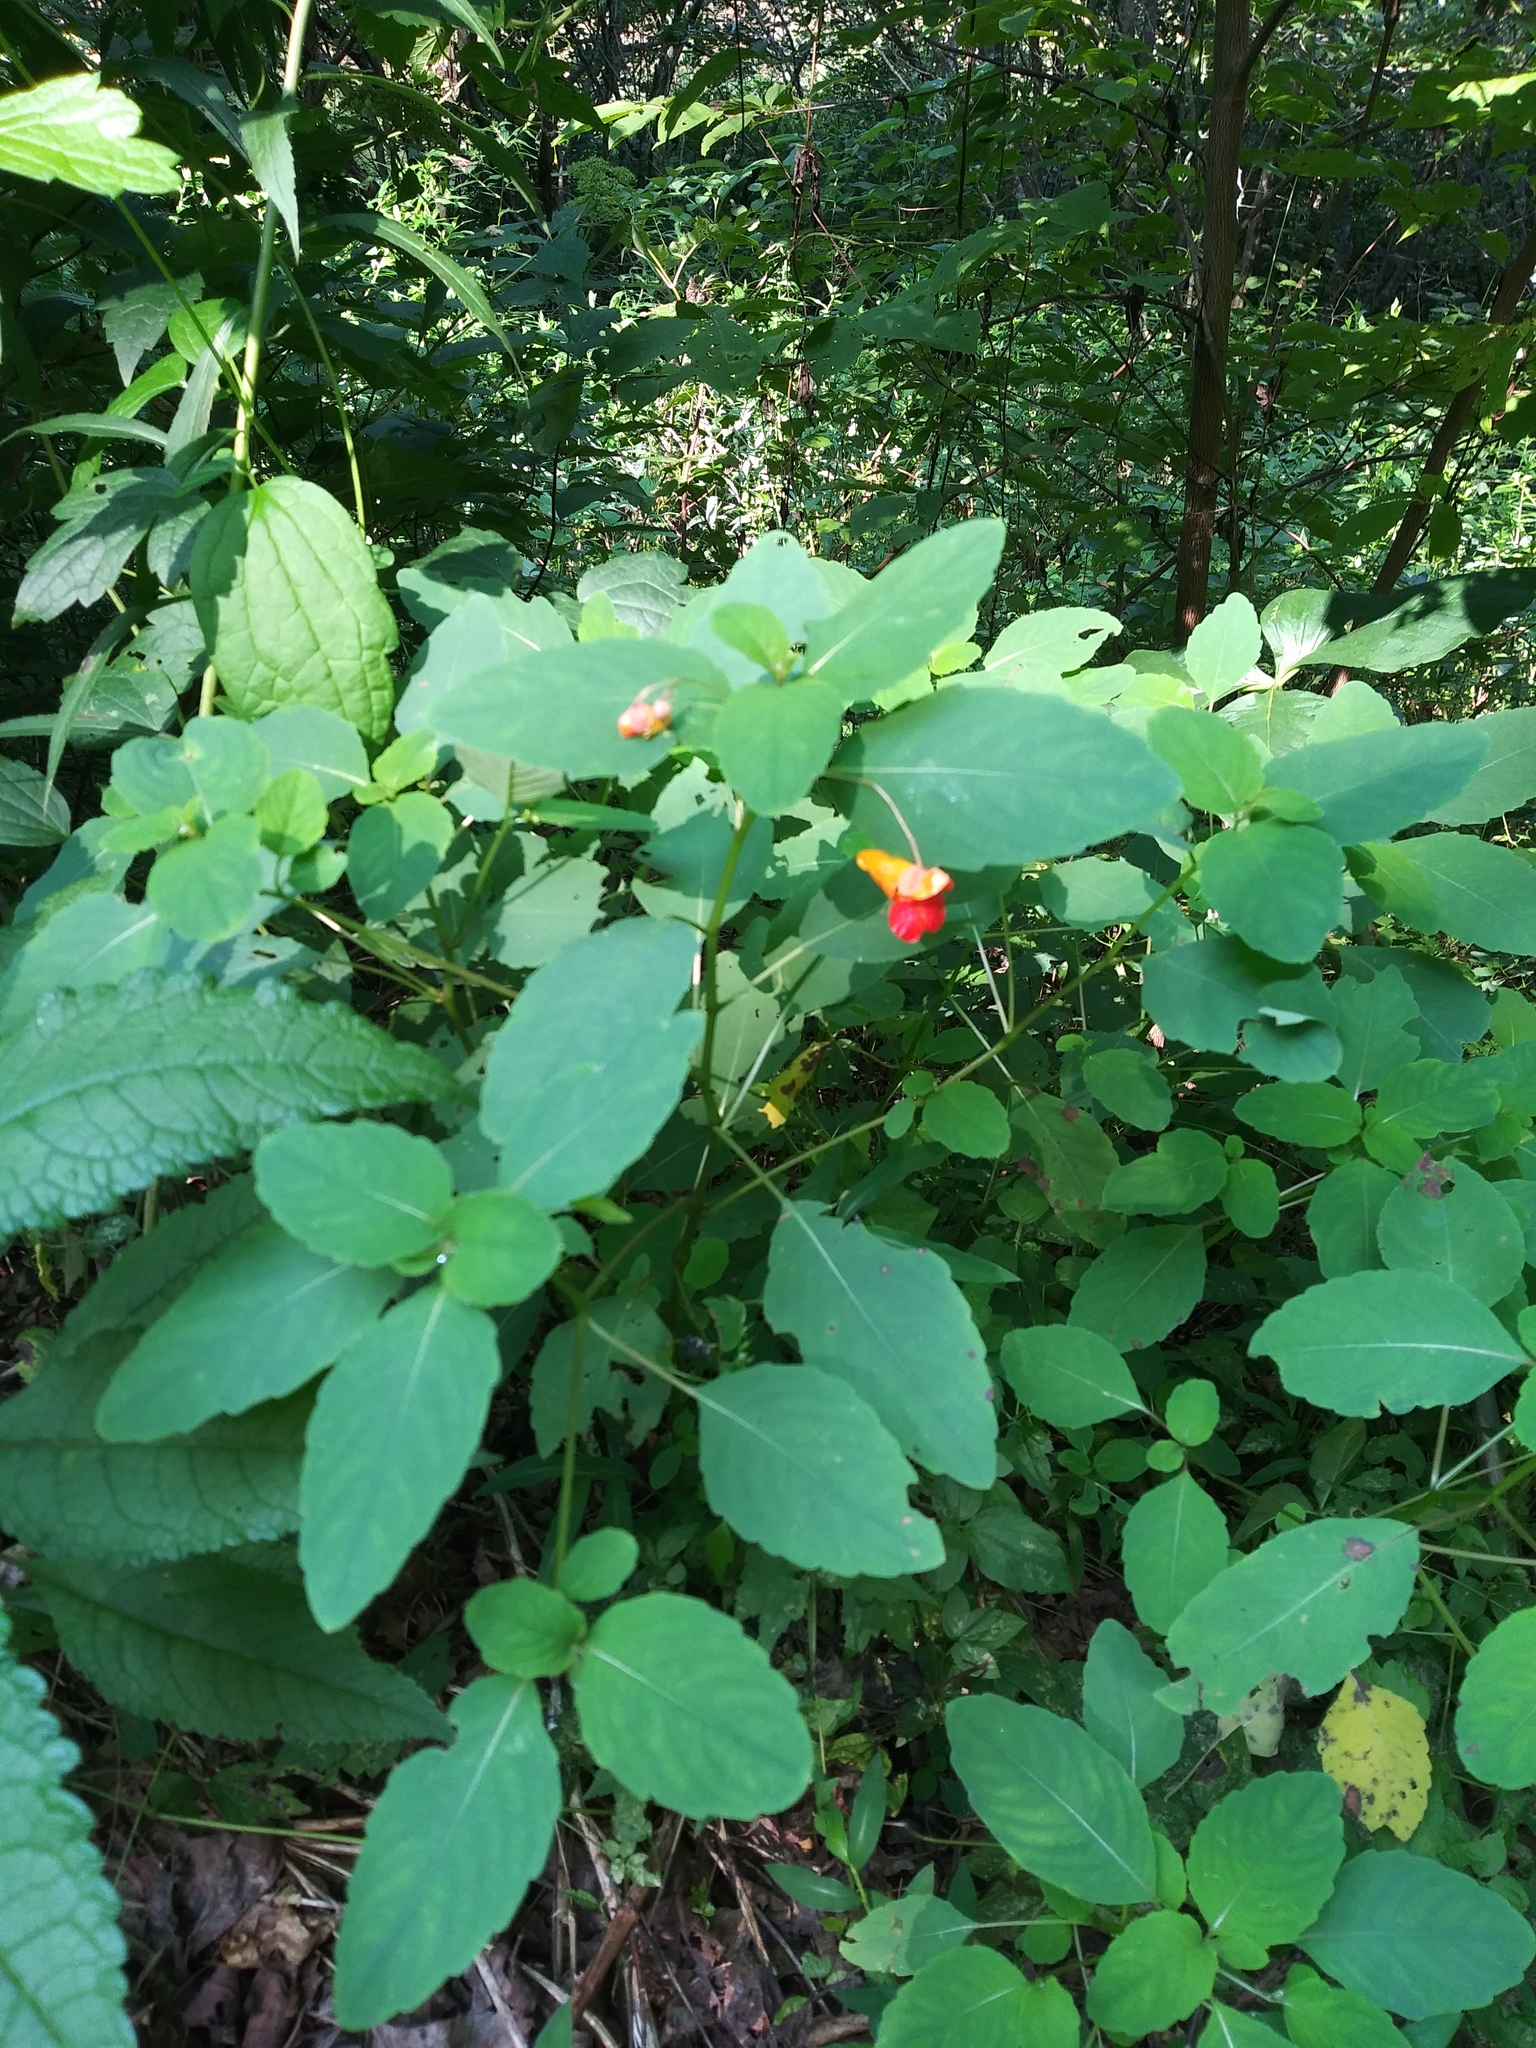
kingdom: Plantae
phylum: Tracheophyta
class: Magnoliopsida
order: Ericales
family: Balsaminaceae
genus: Impatiens
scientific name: Impatiens capensis
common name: Orange balsam
